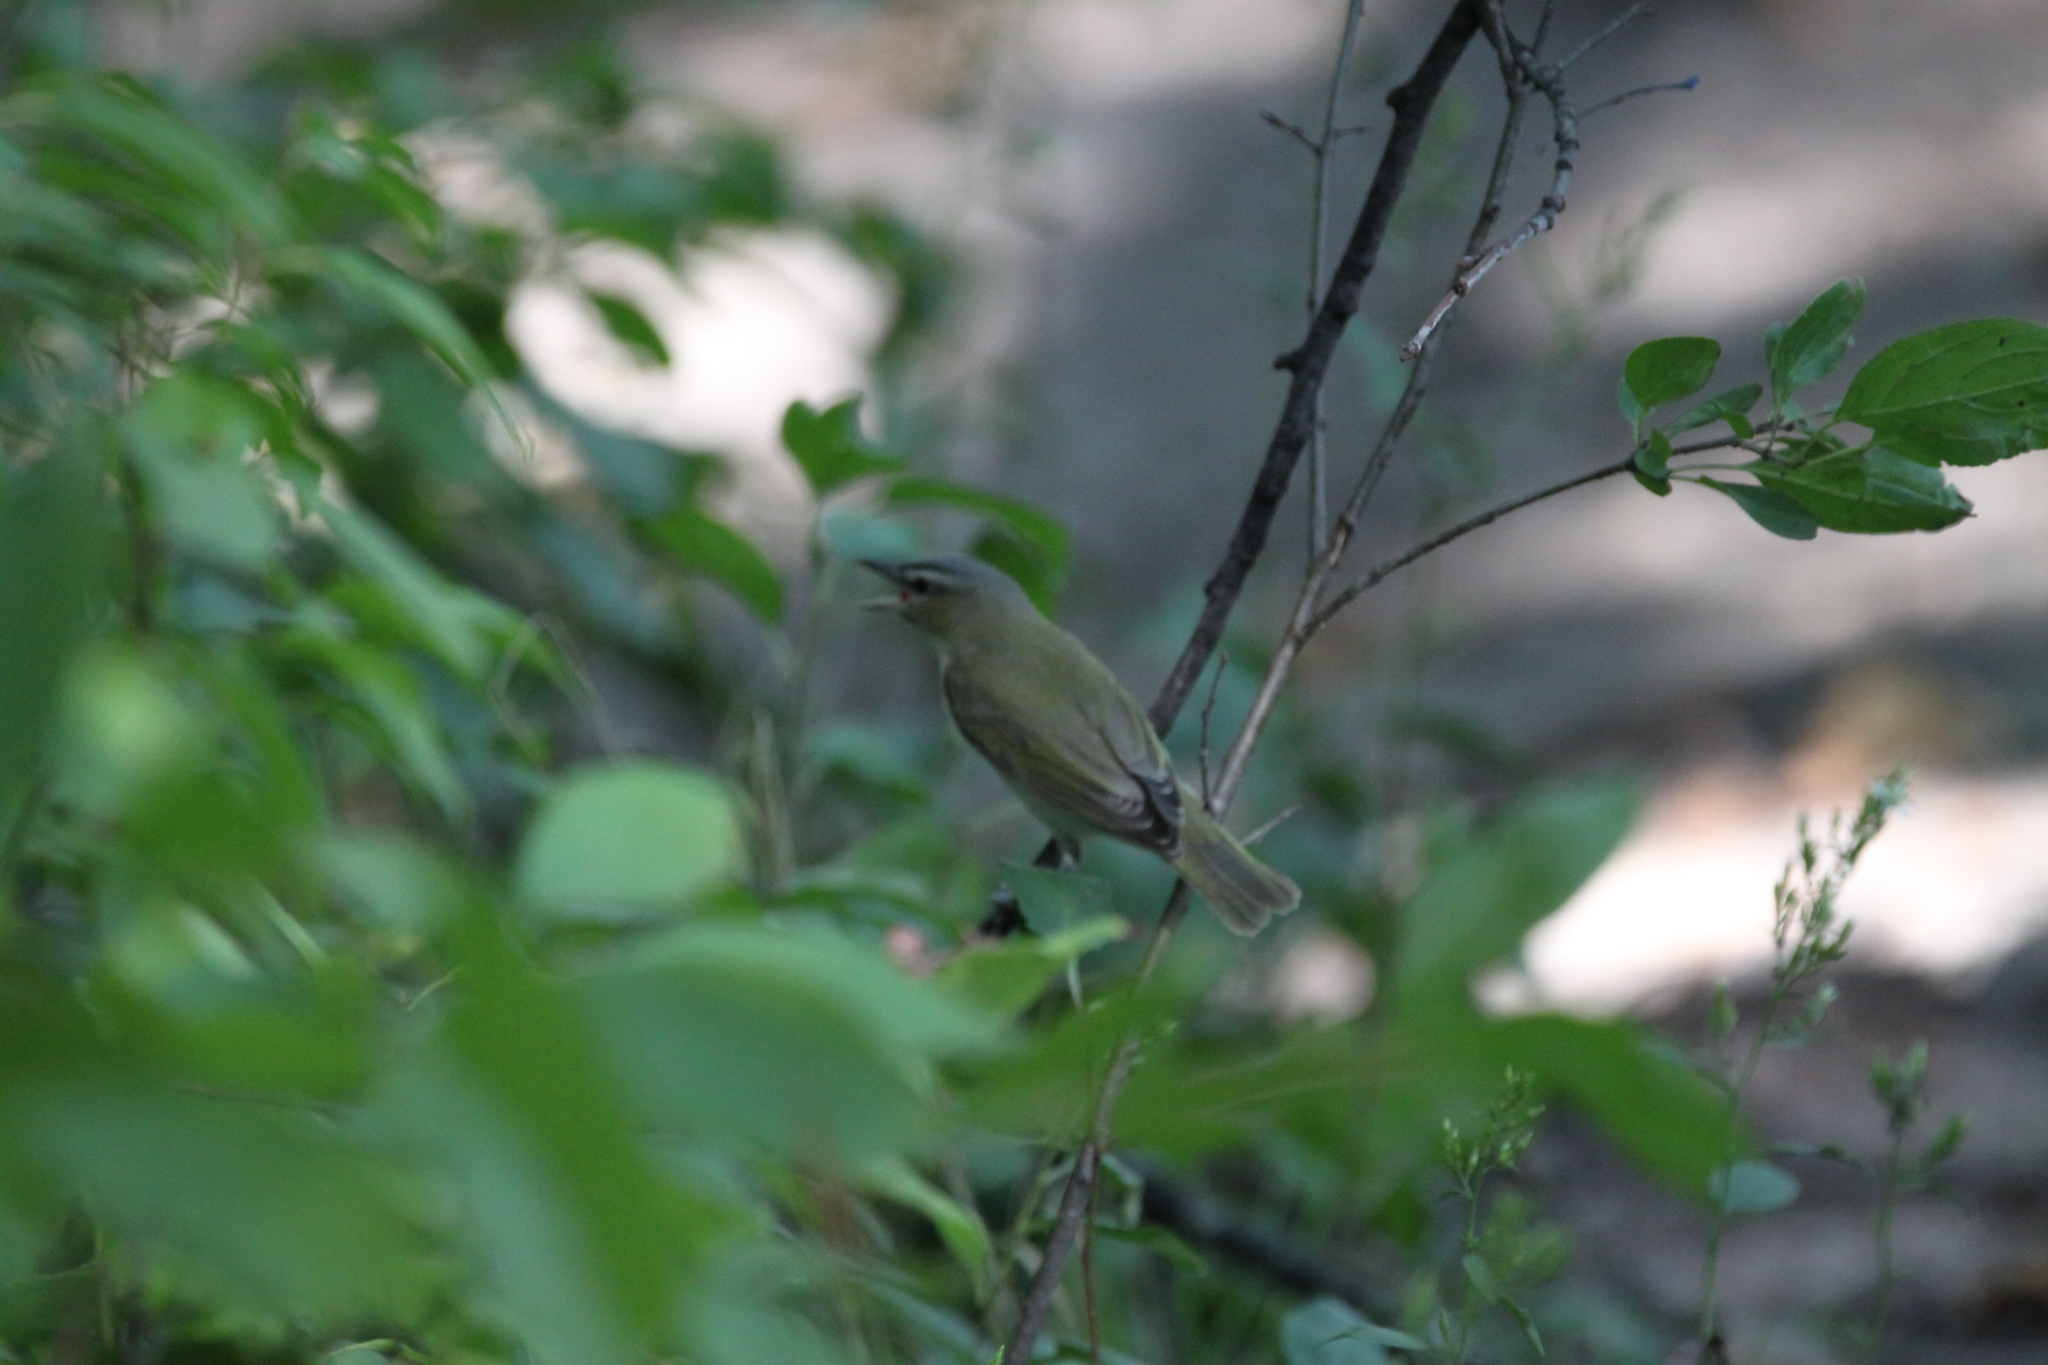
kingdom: Animalia
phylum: Chordata
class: Aves
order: Passeriformes
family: Vireonidae
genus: Vireo
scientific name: Vireo olivaceus
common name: Red-eyed vireo
